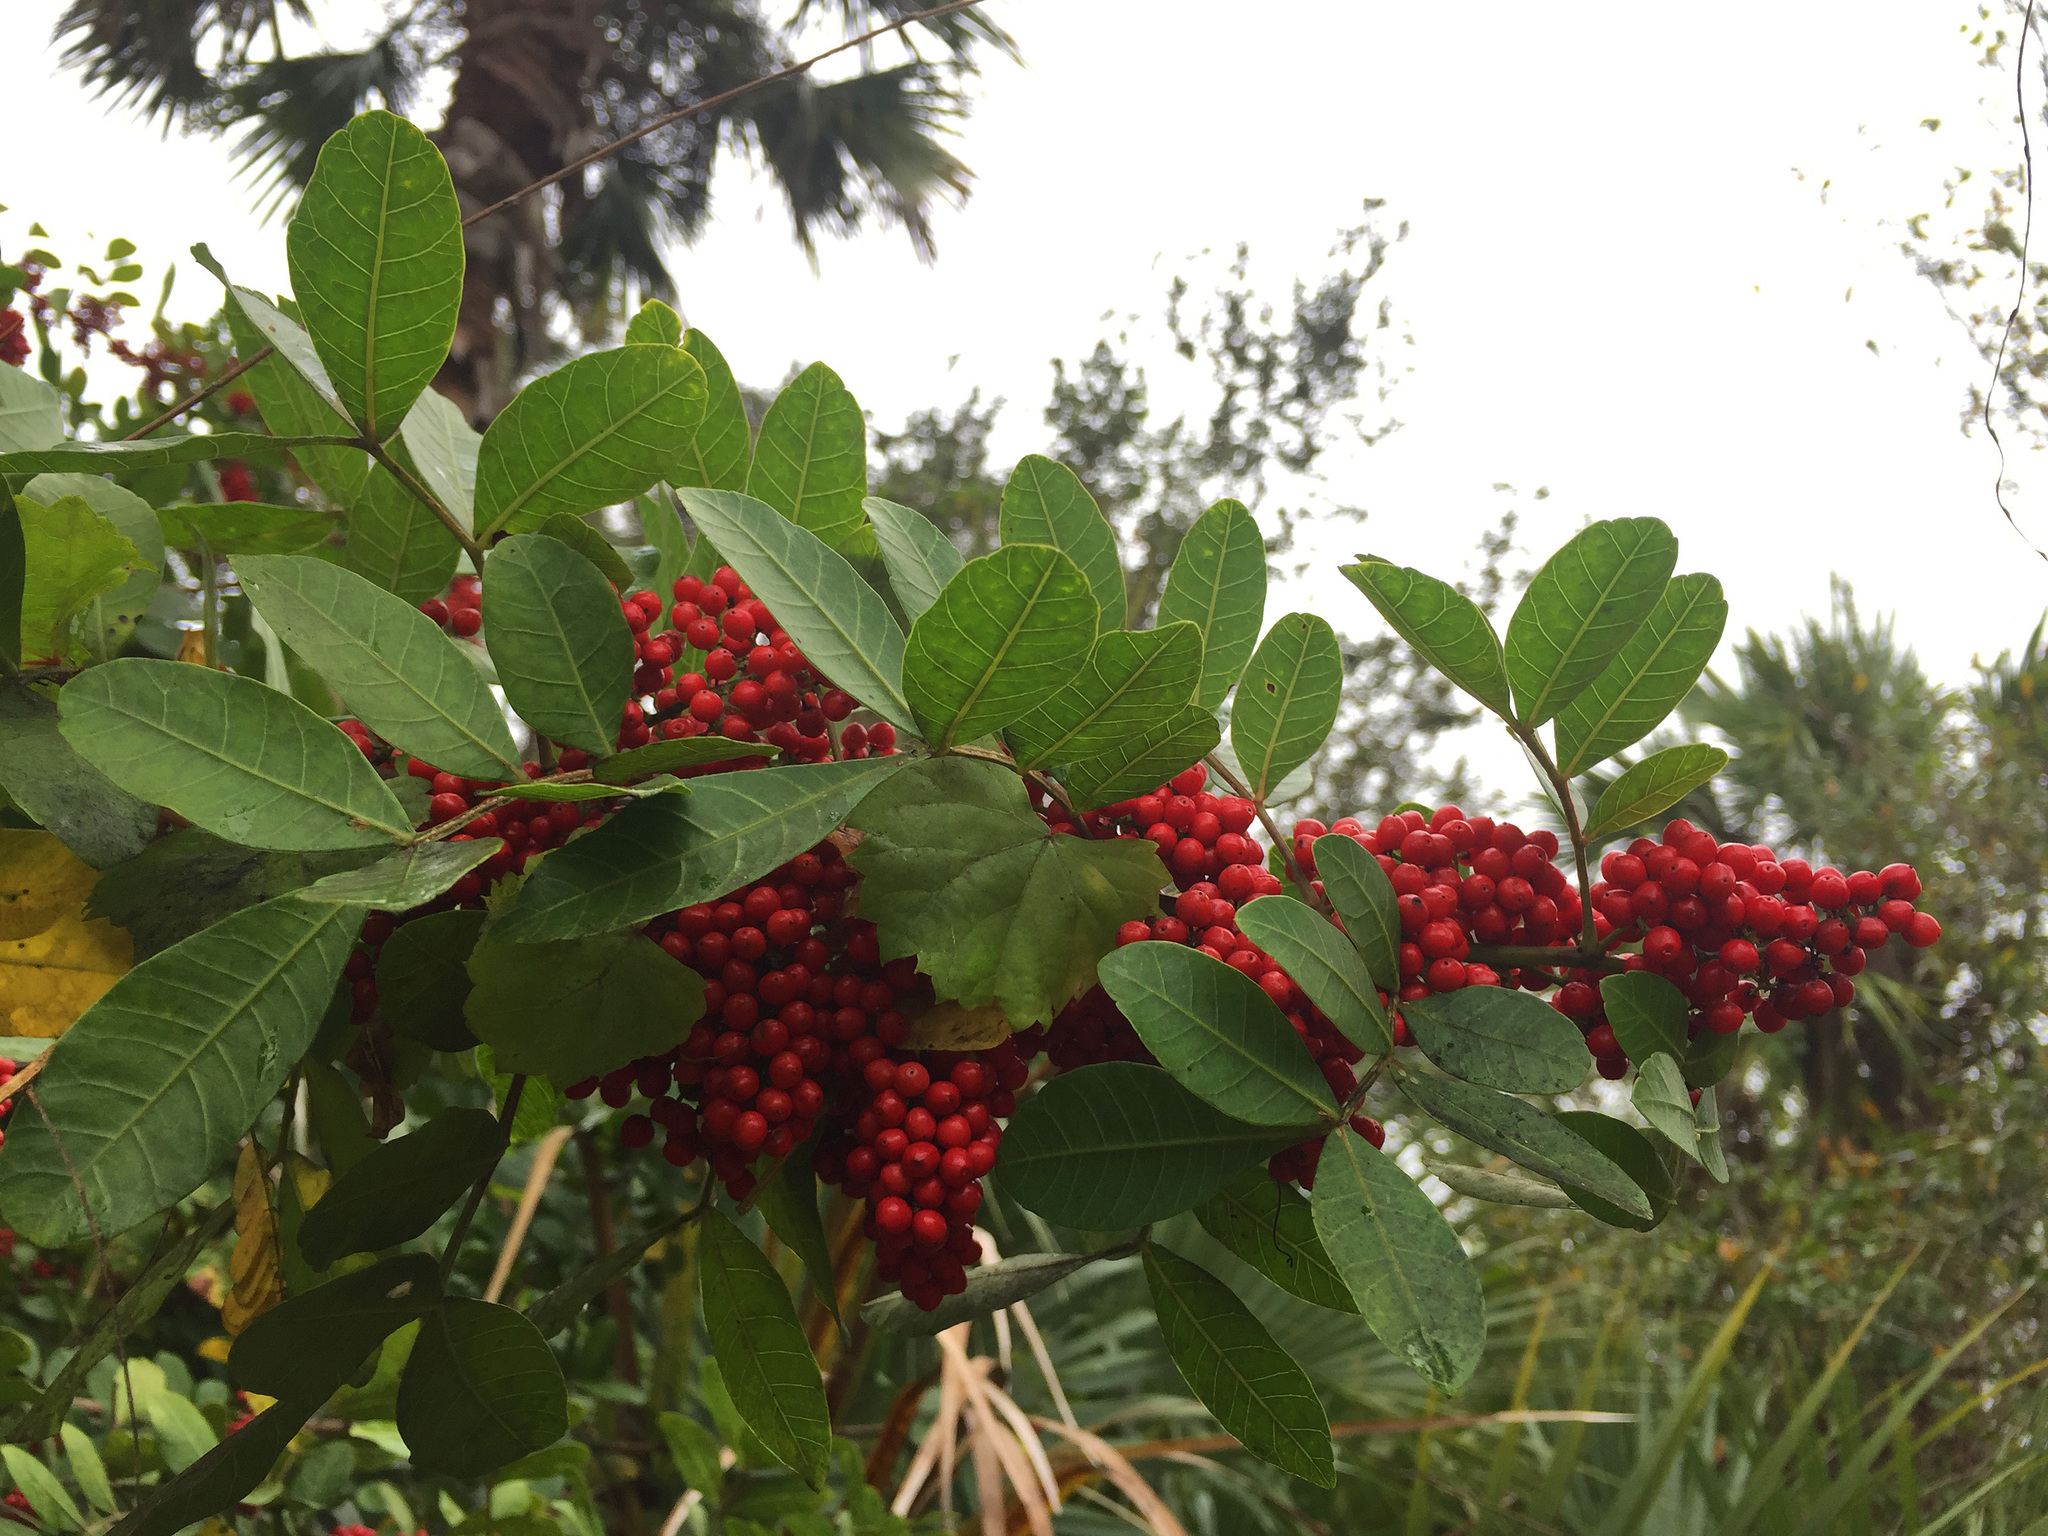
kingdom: Plantae
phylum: Tracheophyta
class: Magnoliopsida
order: Sapindales
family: Anacardiaceae
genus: Schinus
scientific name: Schinus terebinthifolia
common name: Brazilian peppertree
